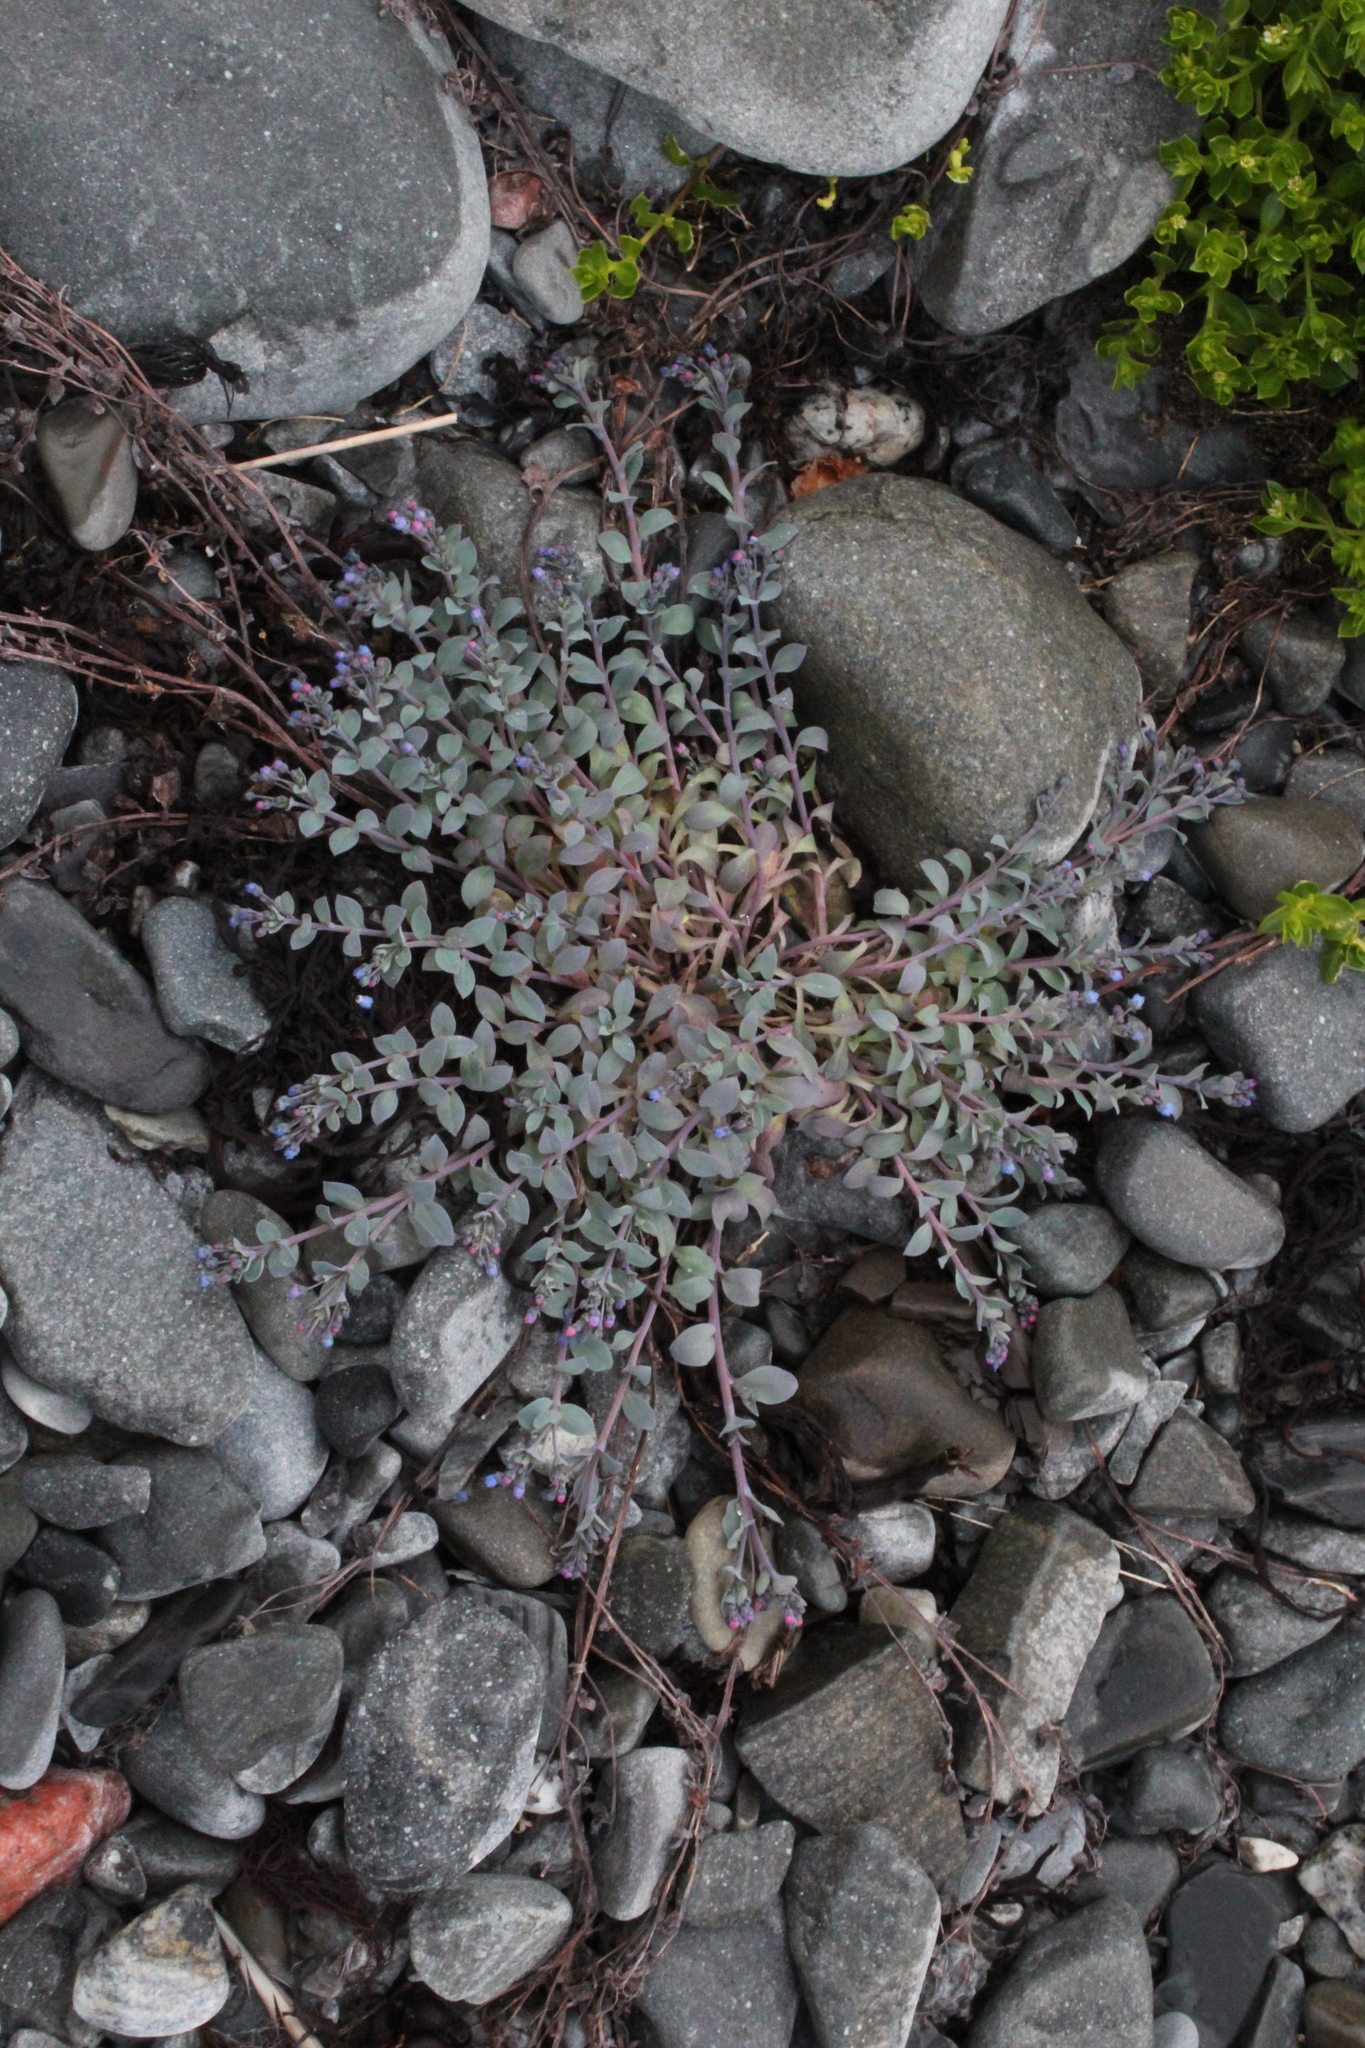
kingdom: Plantae
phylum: Tracheophyta
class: Magnoliopsida
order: Boraginales
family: Boraginaceae
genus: Mertensia
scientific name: Mertensia maritima
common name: Oysterplant
